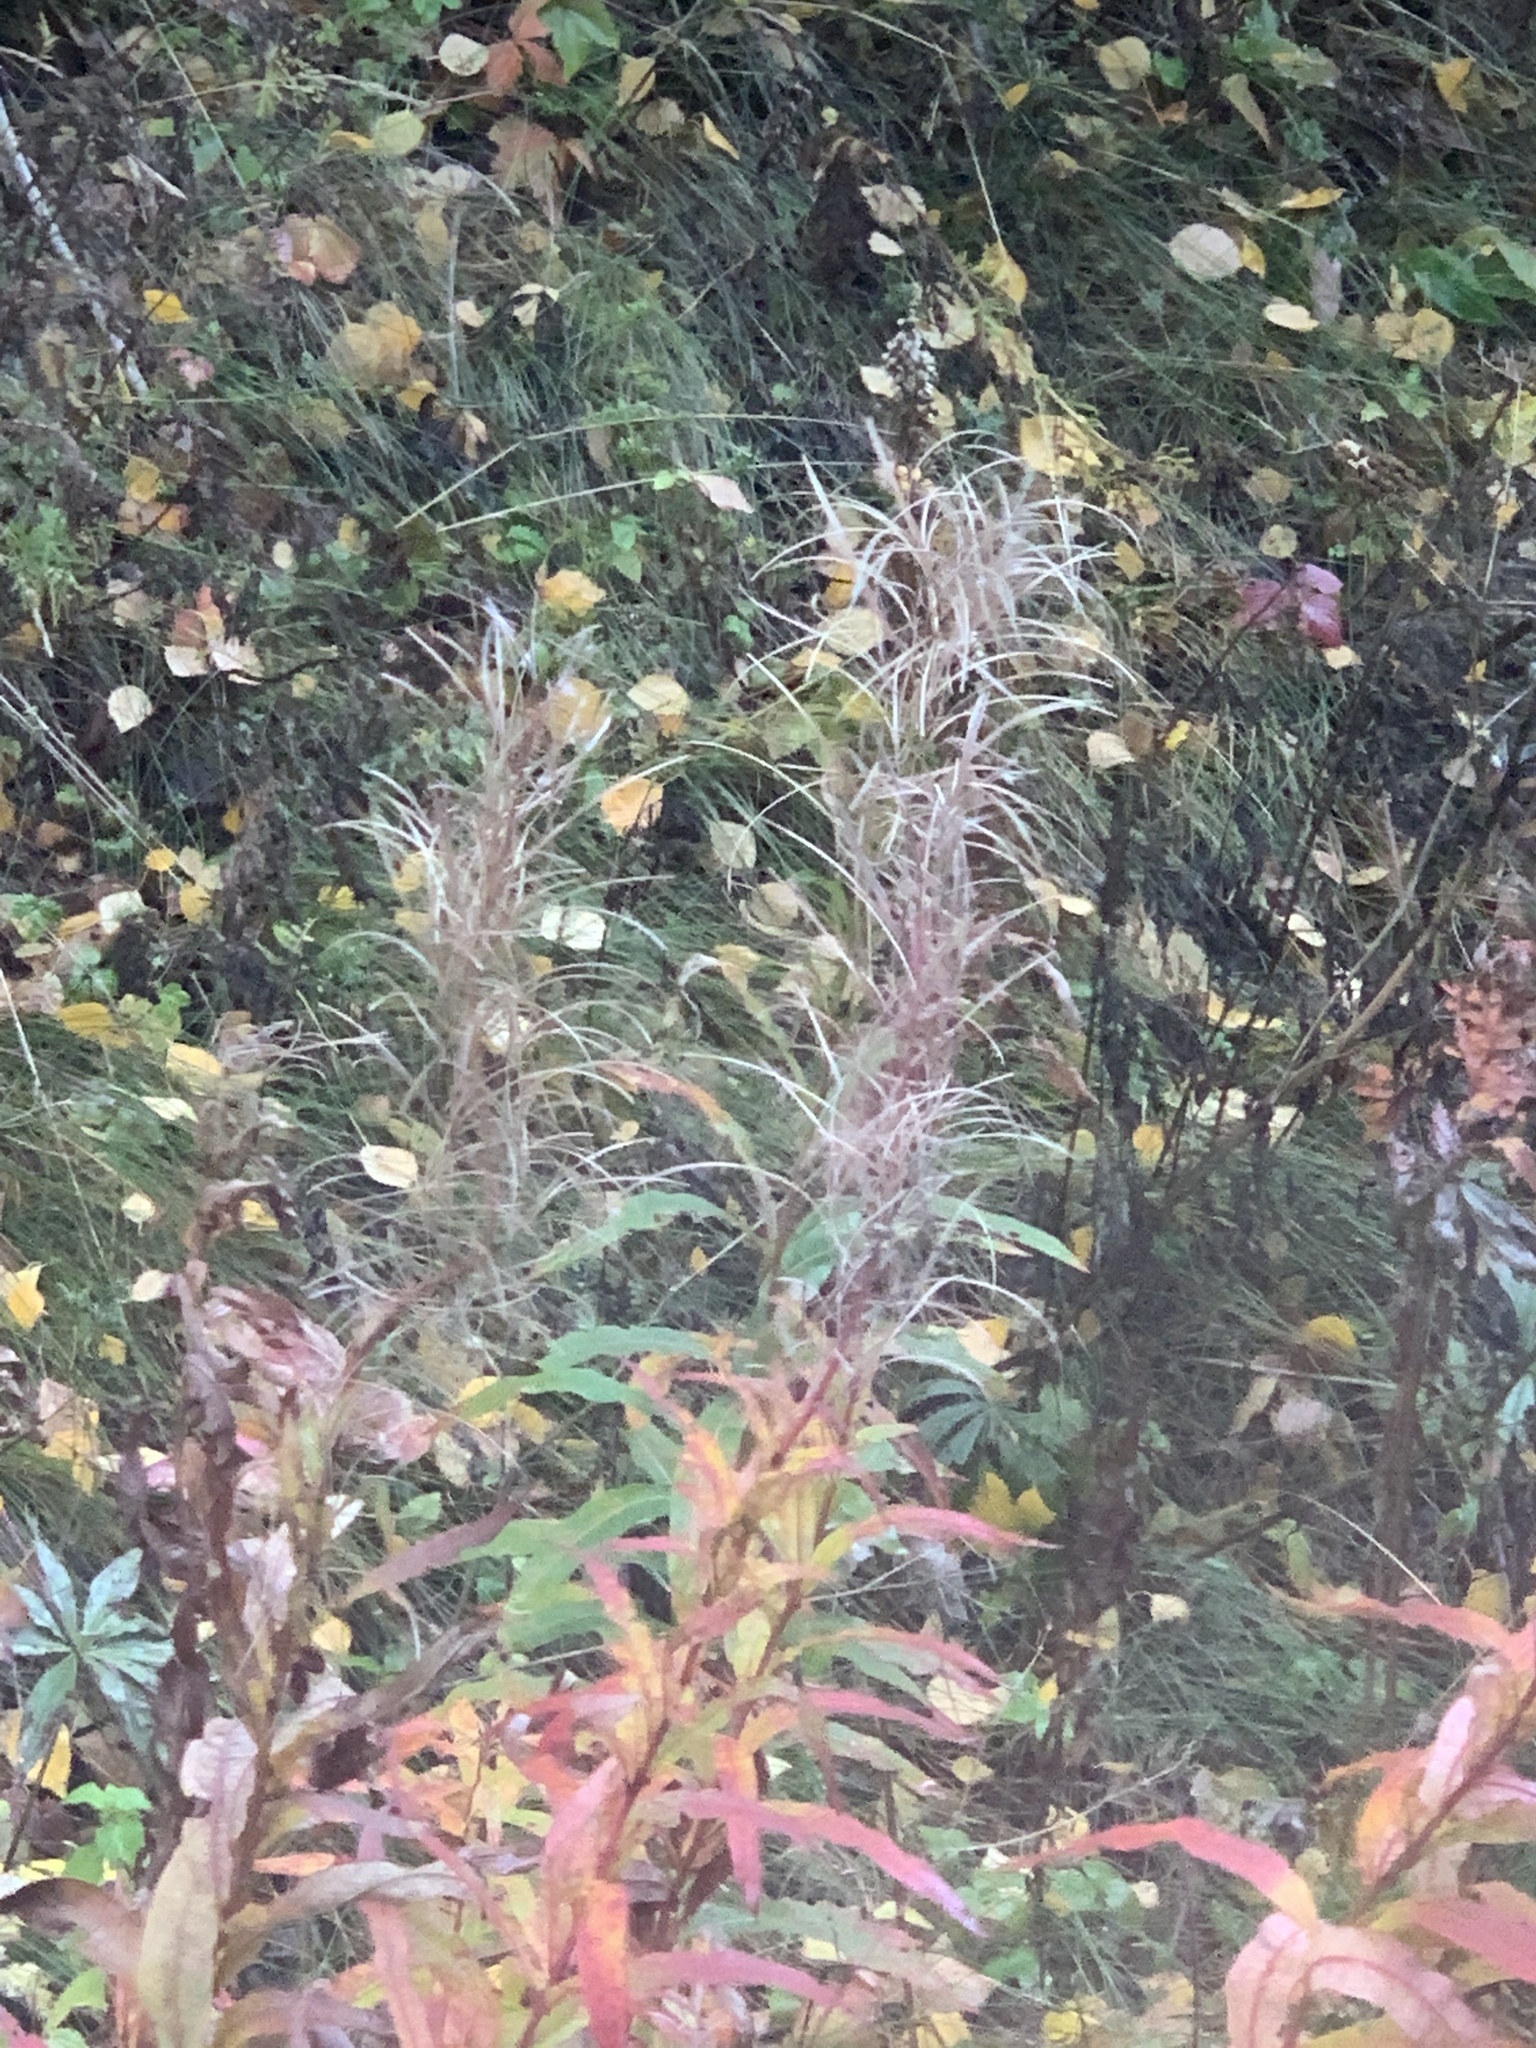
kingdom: Plantae
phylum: Tracheophyta
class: Magnoliopsida
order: Myrtales
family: Onagraceae
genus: Chamaenerion
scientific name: Chamaenerion angustifolium
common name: Fireweed
